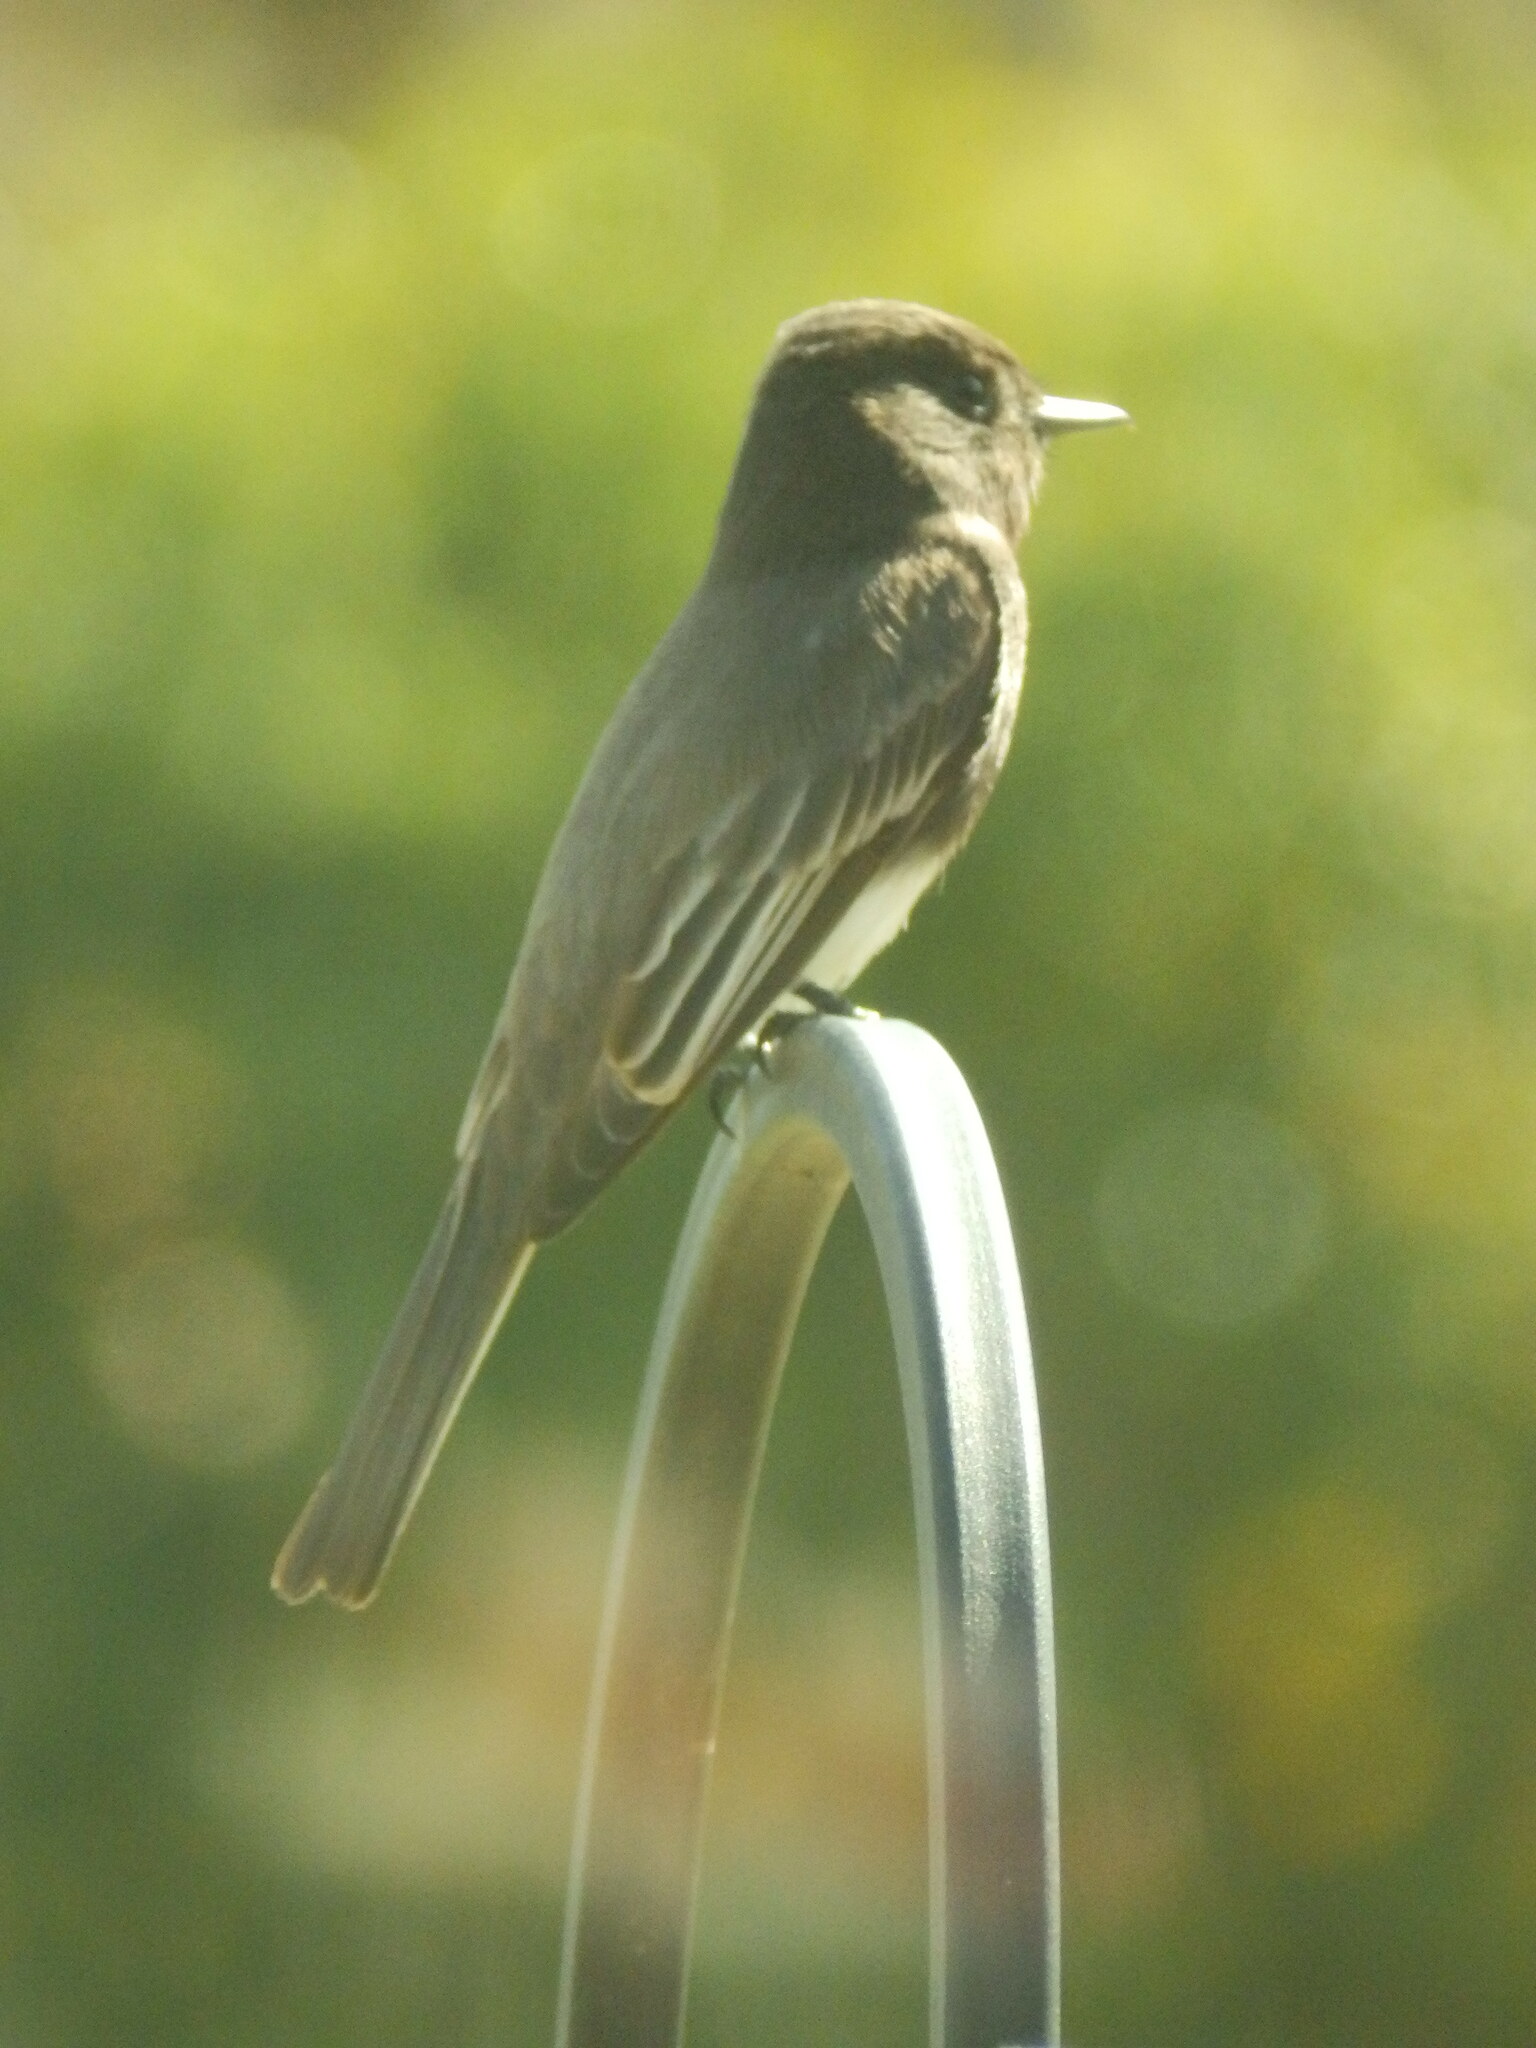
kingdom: Animalia
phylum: Chordata
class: Aves
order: Passeriformes
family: Tyrannidae
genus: Sayornis
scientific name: Sayornis nigricans
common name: Black phoebe
